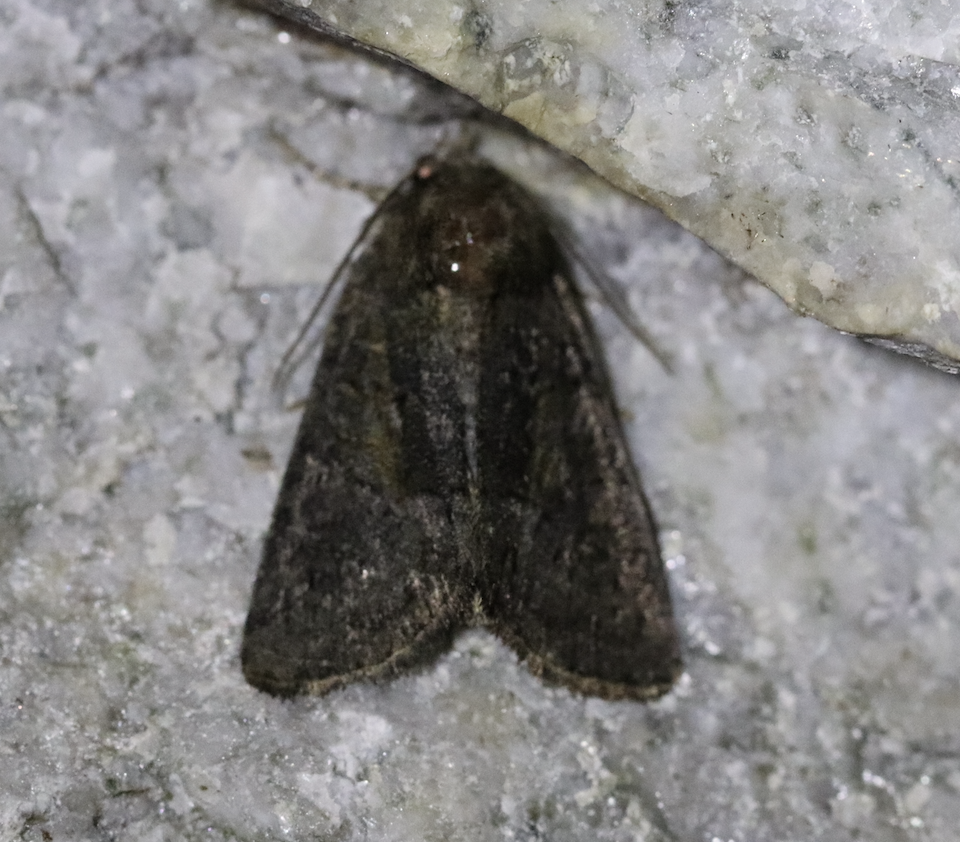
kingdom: Animalia
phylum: Arthropoda
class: Insecta
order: Lepidoptera
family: Noctuidae
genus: Oligia
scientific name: Oligia latruncula
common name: Tawny marbled minor
